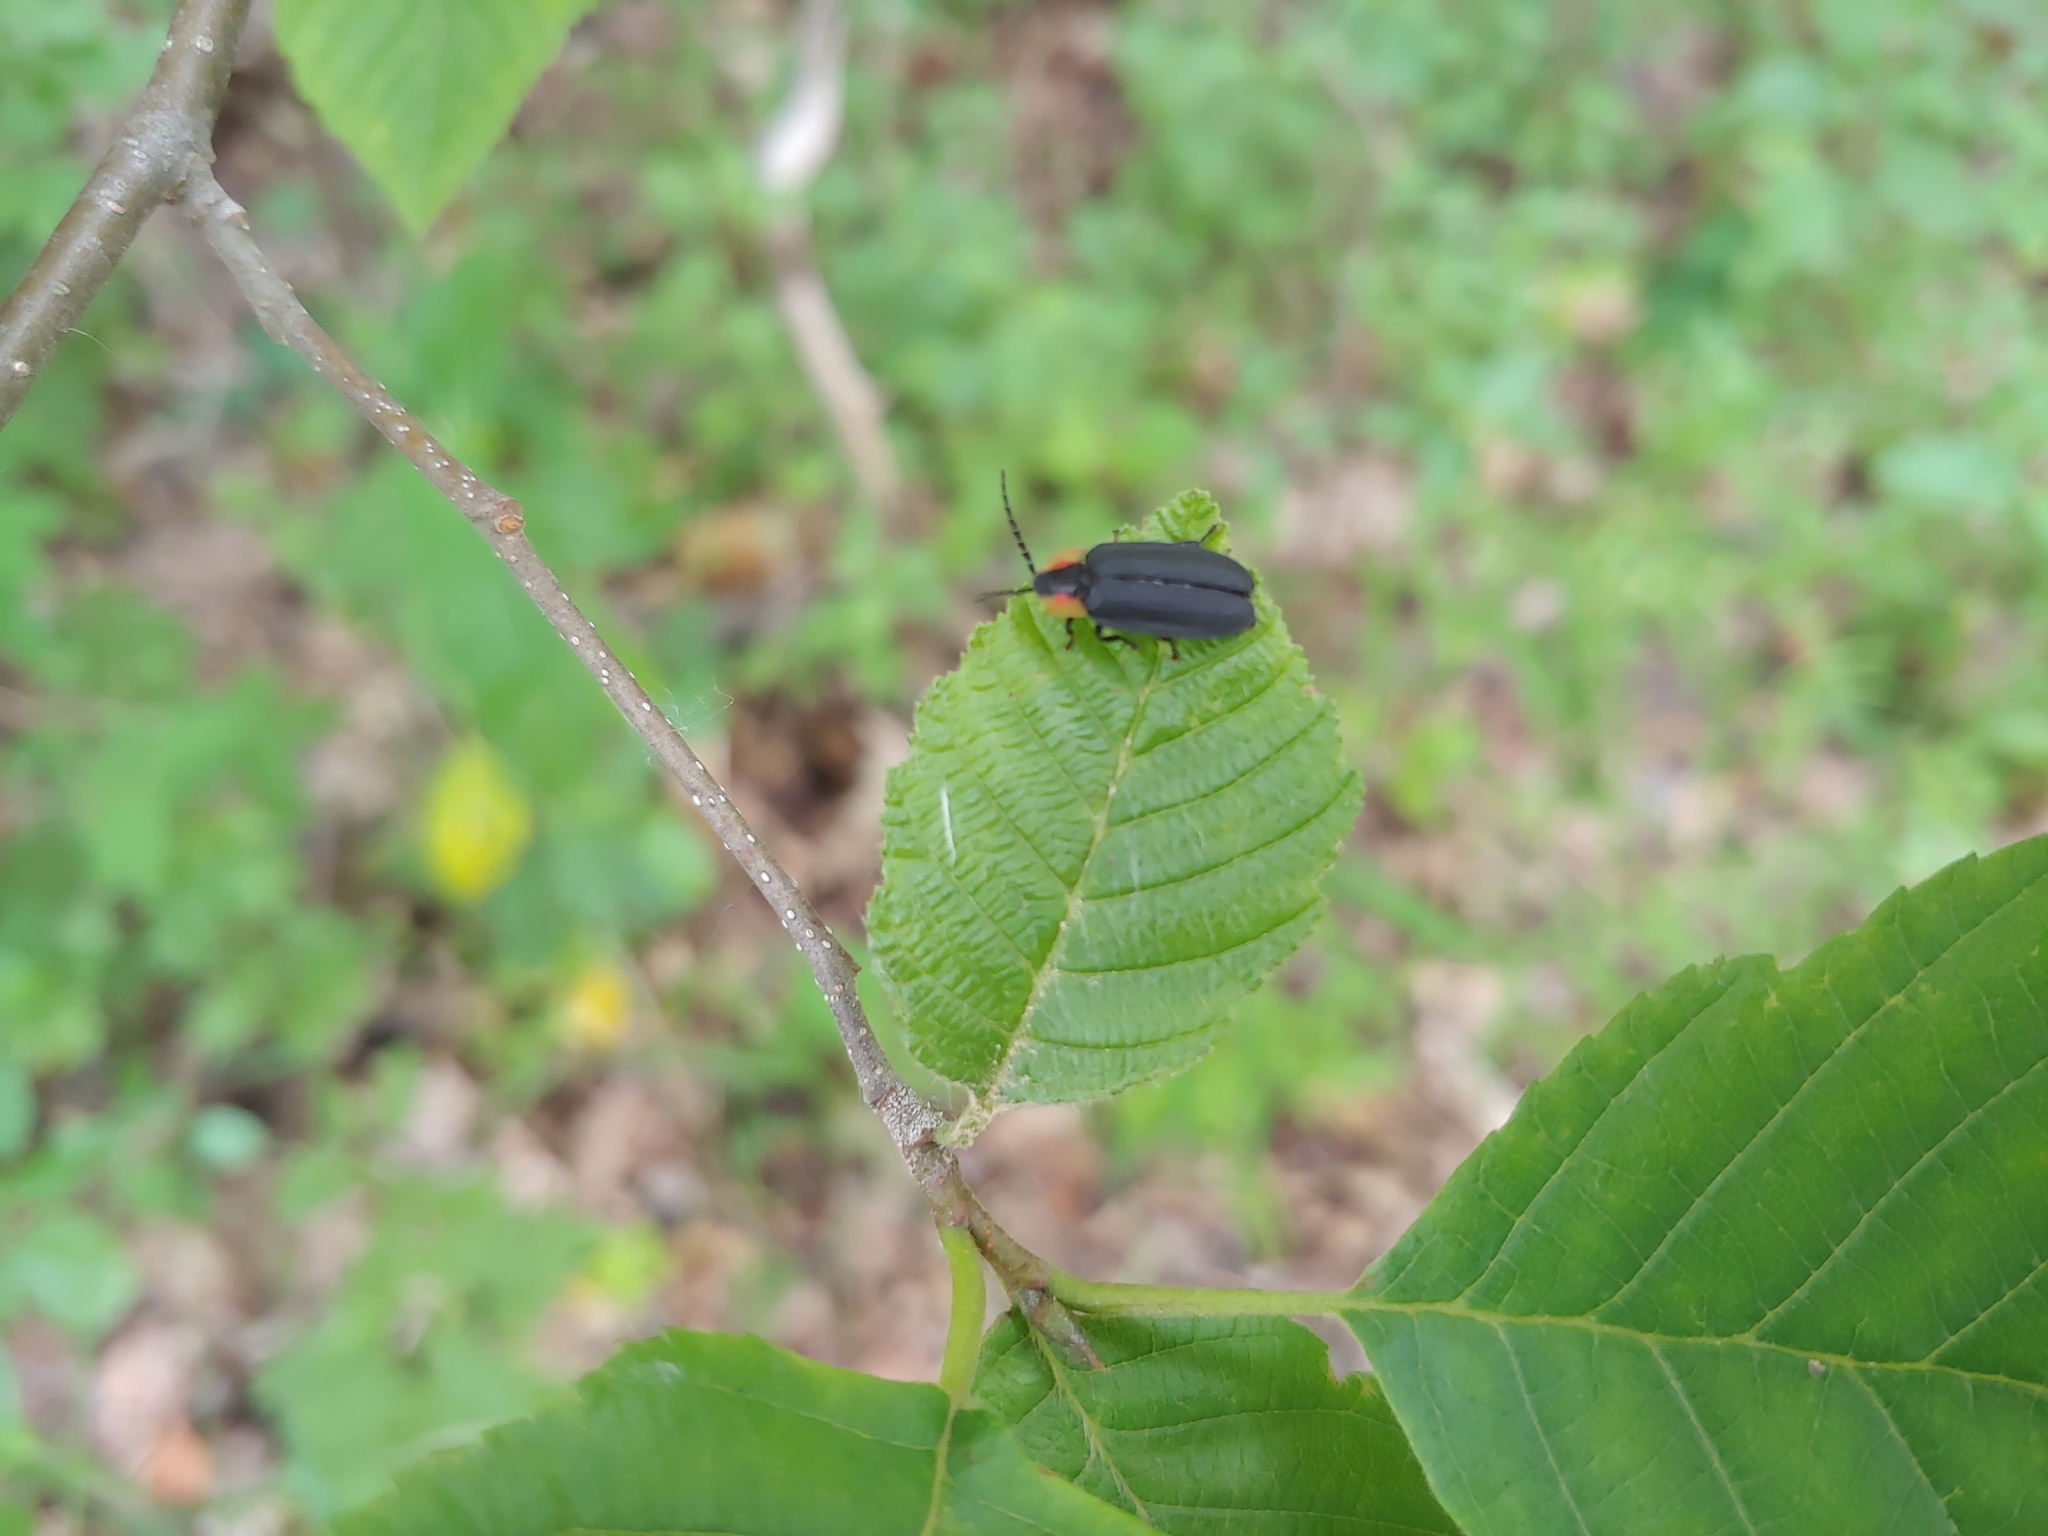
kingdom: Animalia
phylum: Arthropoda
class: Insecta
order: Coleoptera
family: Lampyridae
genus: Lucidota
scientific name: Lucidota atra
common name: Black firefly
